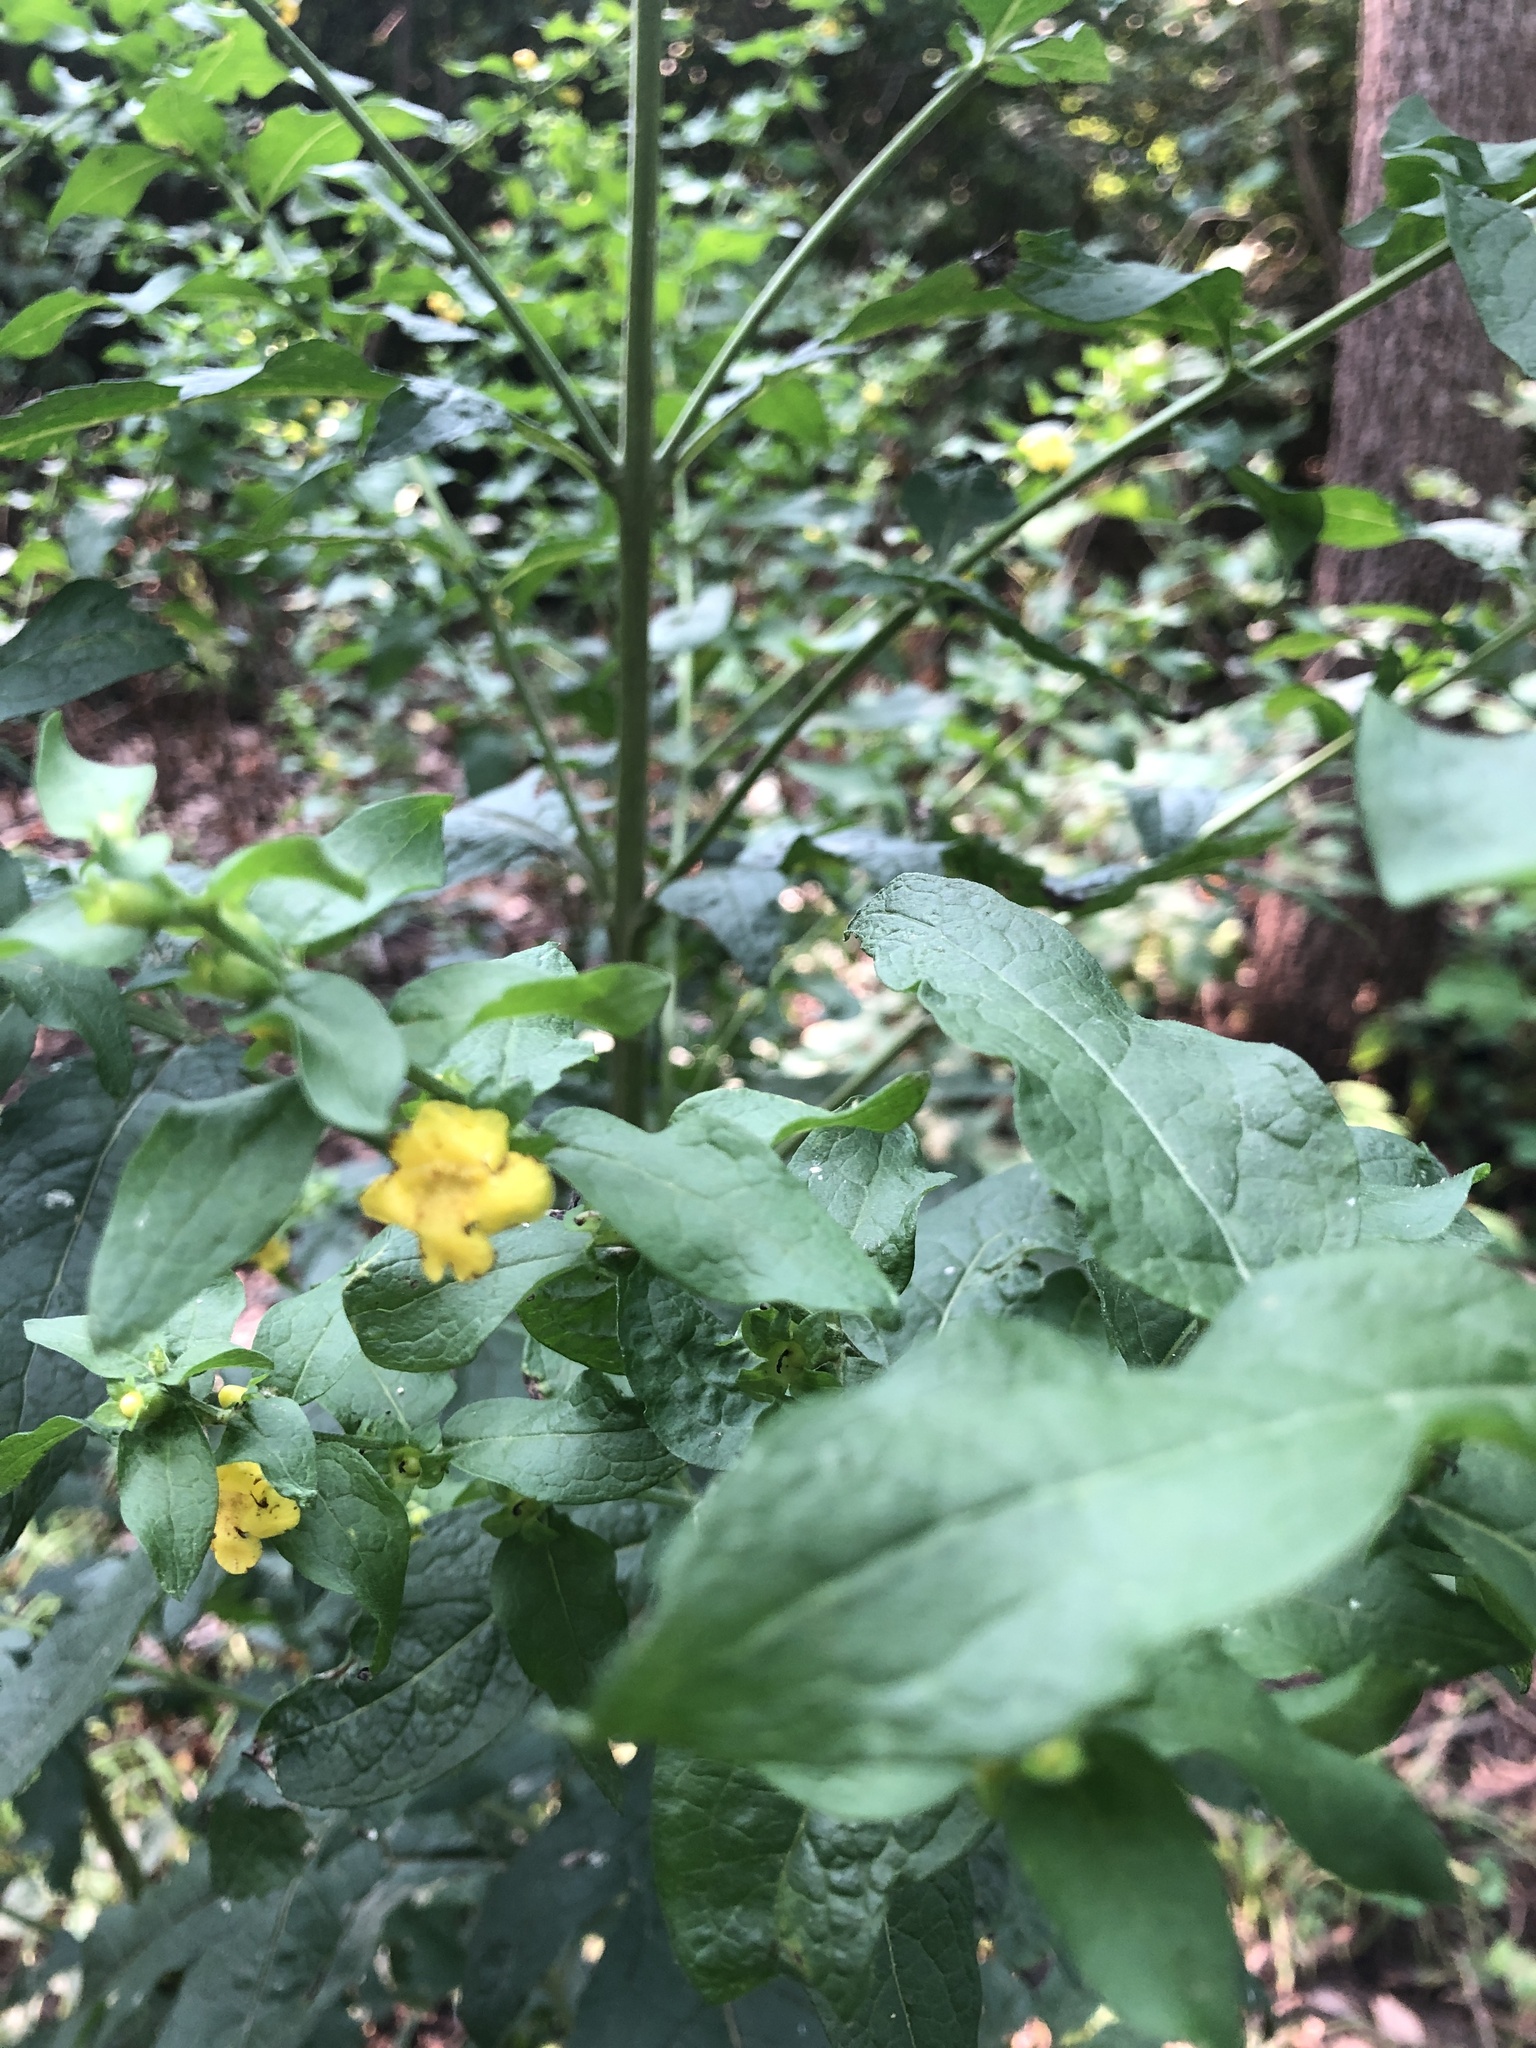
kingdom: Plantae
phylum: Tracheophyta
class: Magnoliopsida
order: Lamiales
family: Orobanchaceae
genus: Dasistoma
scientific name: Dasistoma macrophyllum
